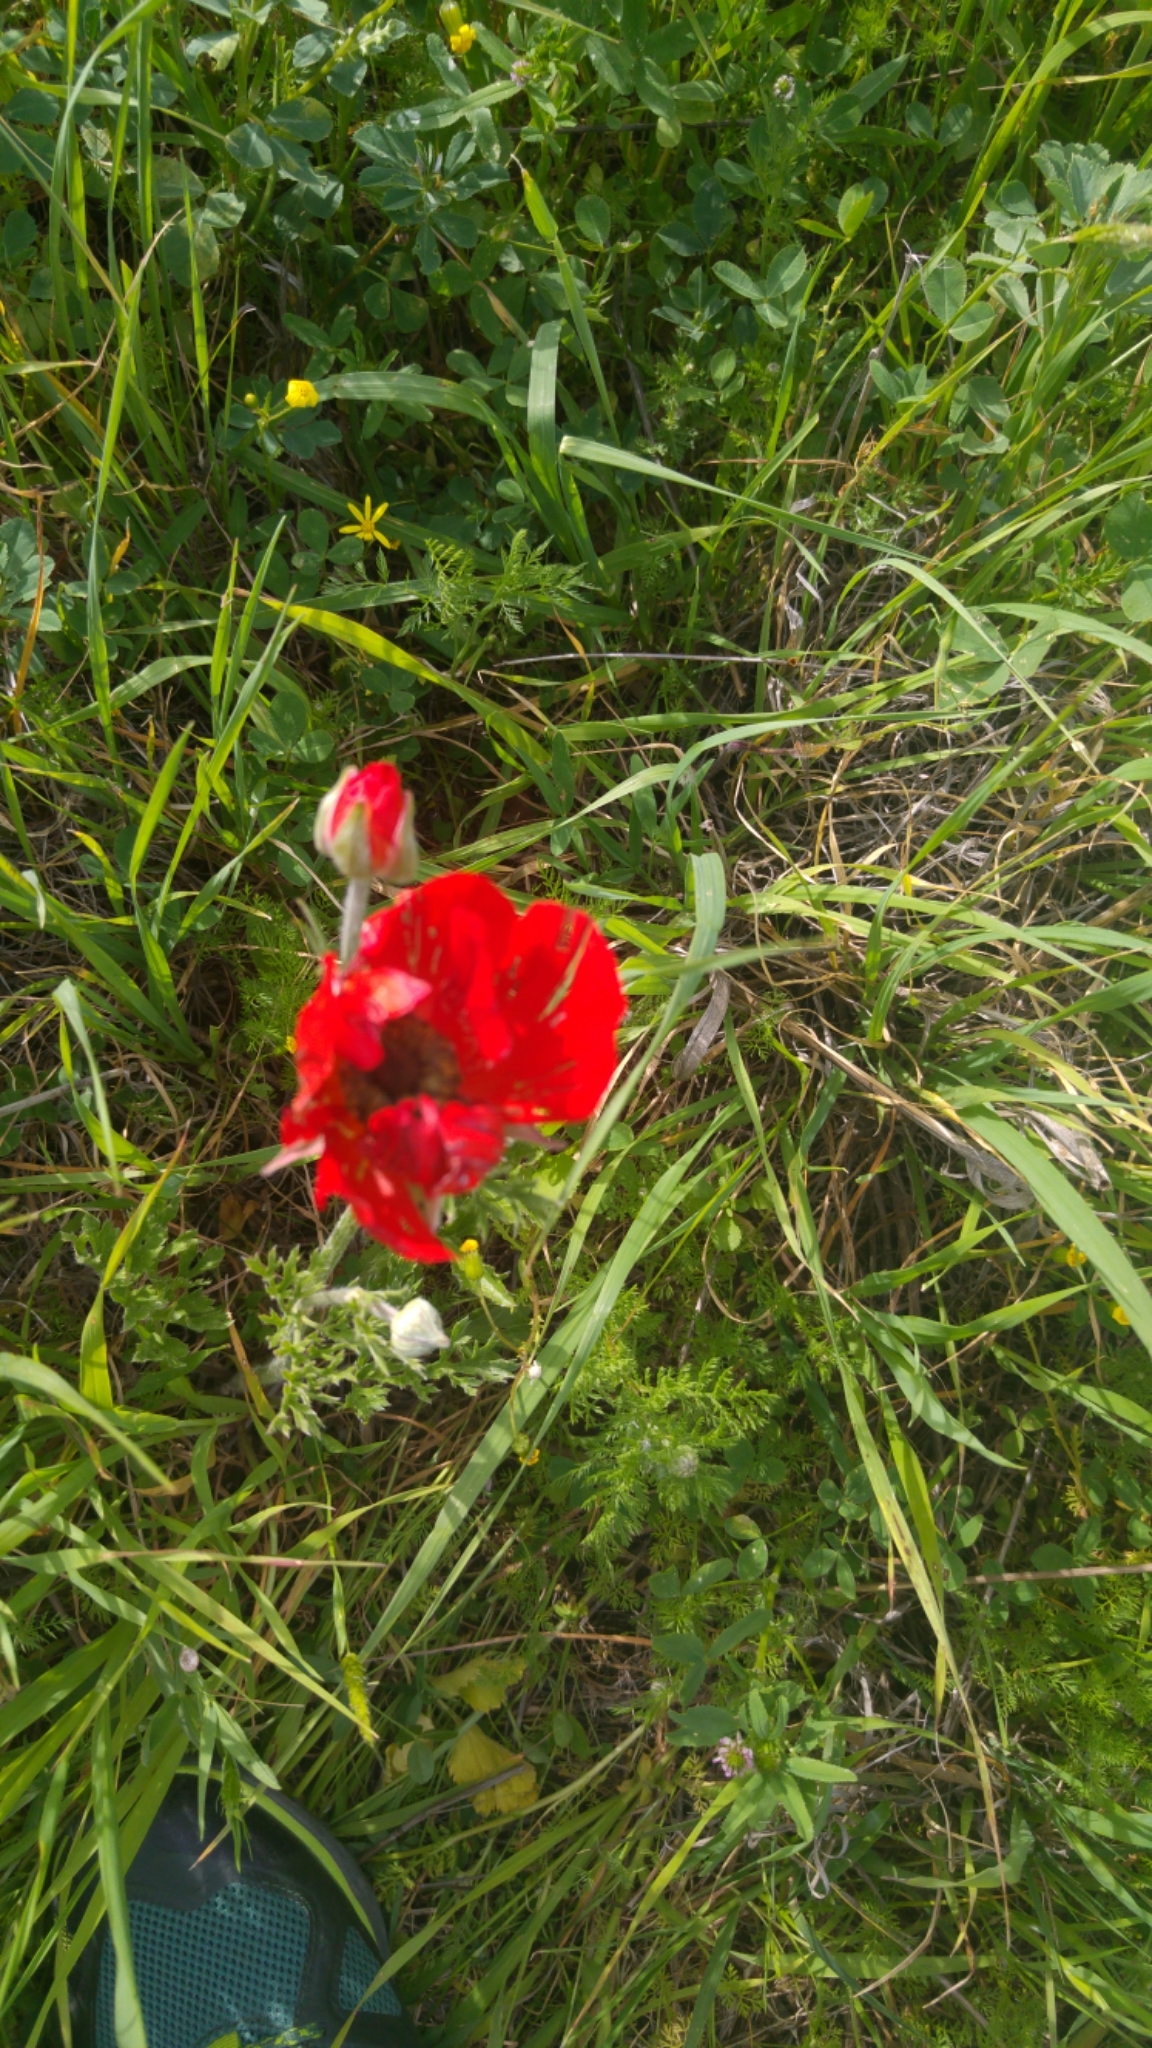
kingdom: Plantae
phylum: Tracheophyta
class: Magnoliopsida
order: Ranunculales
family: Ranunculaceae
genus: Anemone
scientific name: Anemone coronaria
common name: Poppy anemone
